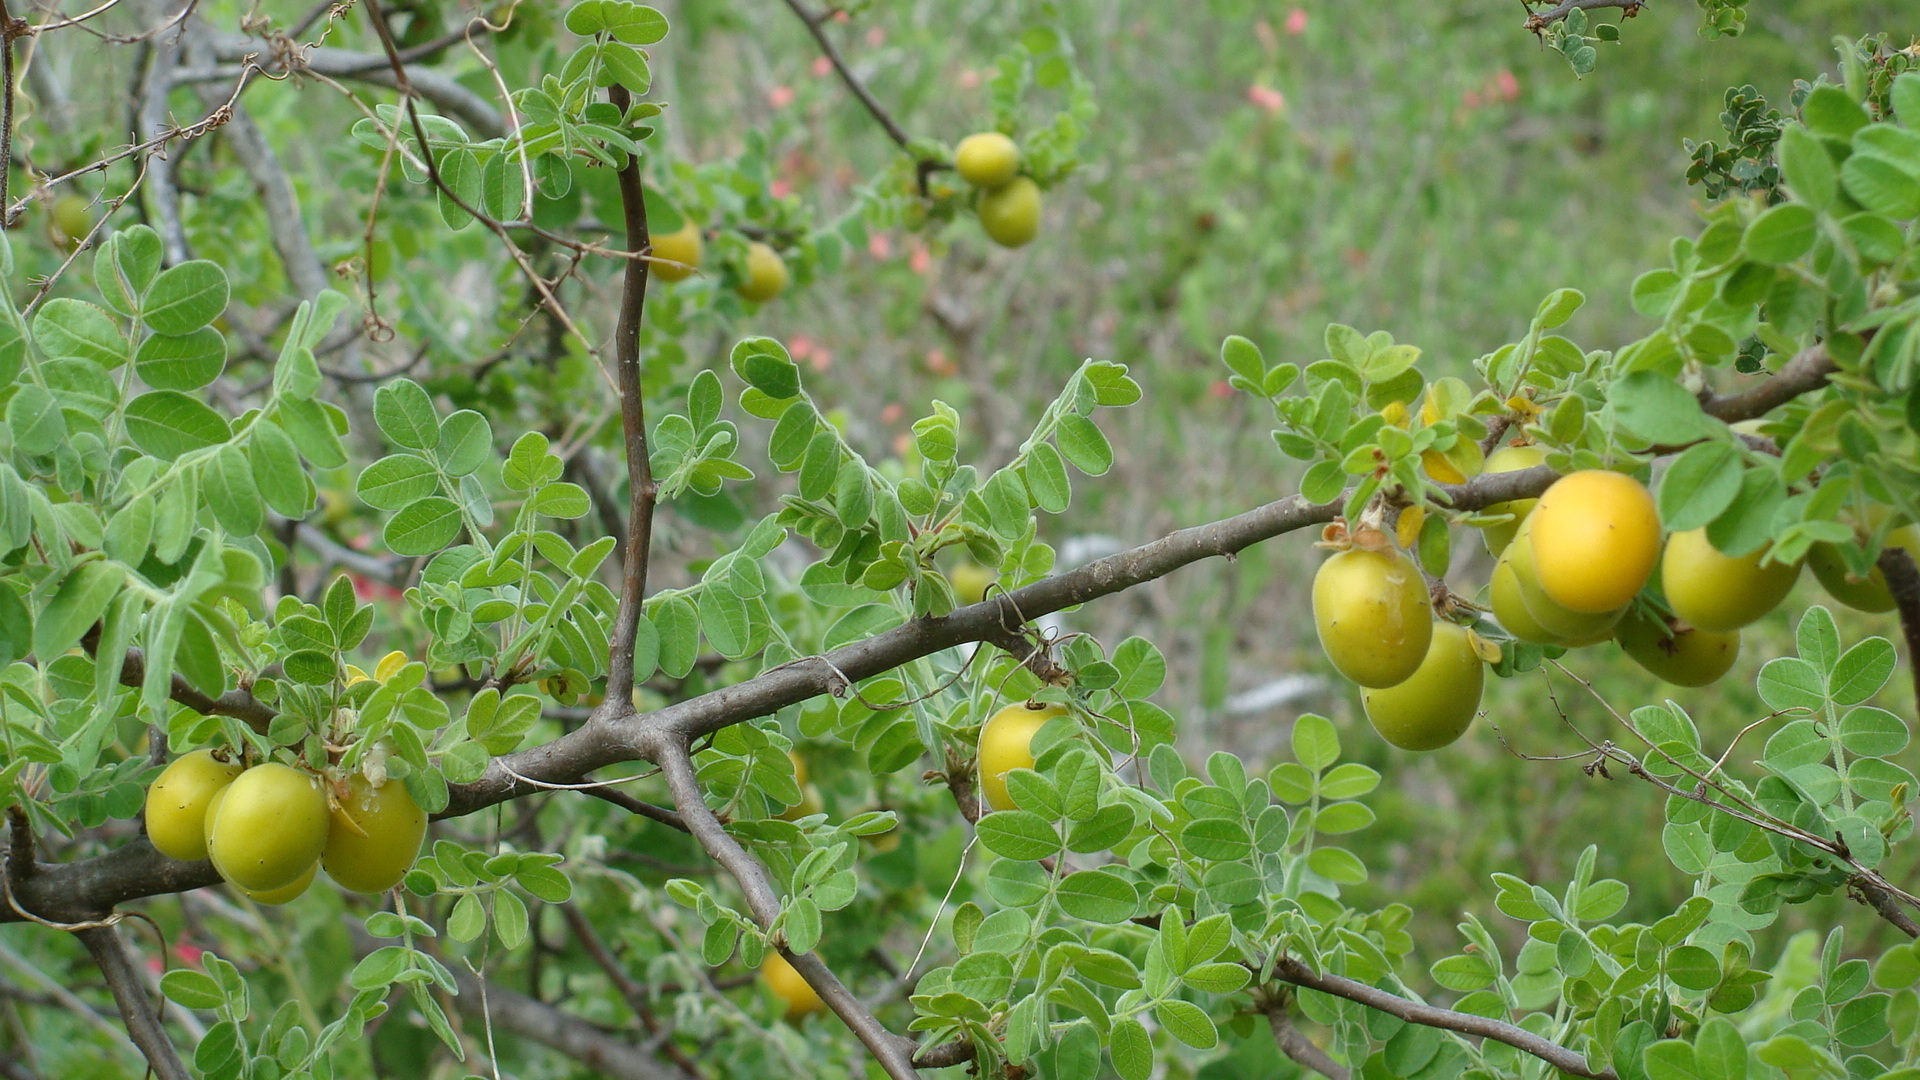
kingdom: Plantae
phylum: Tracheophyta
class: Magnoliopsida
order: Sapindales
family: Anacardiaceae
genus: Cyrtocarpa
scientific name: Cyrtocarpa edulis
